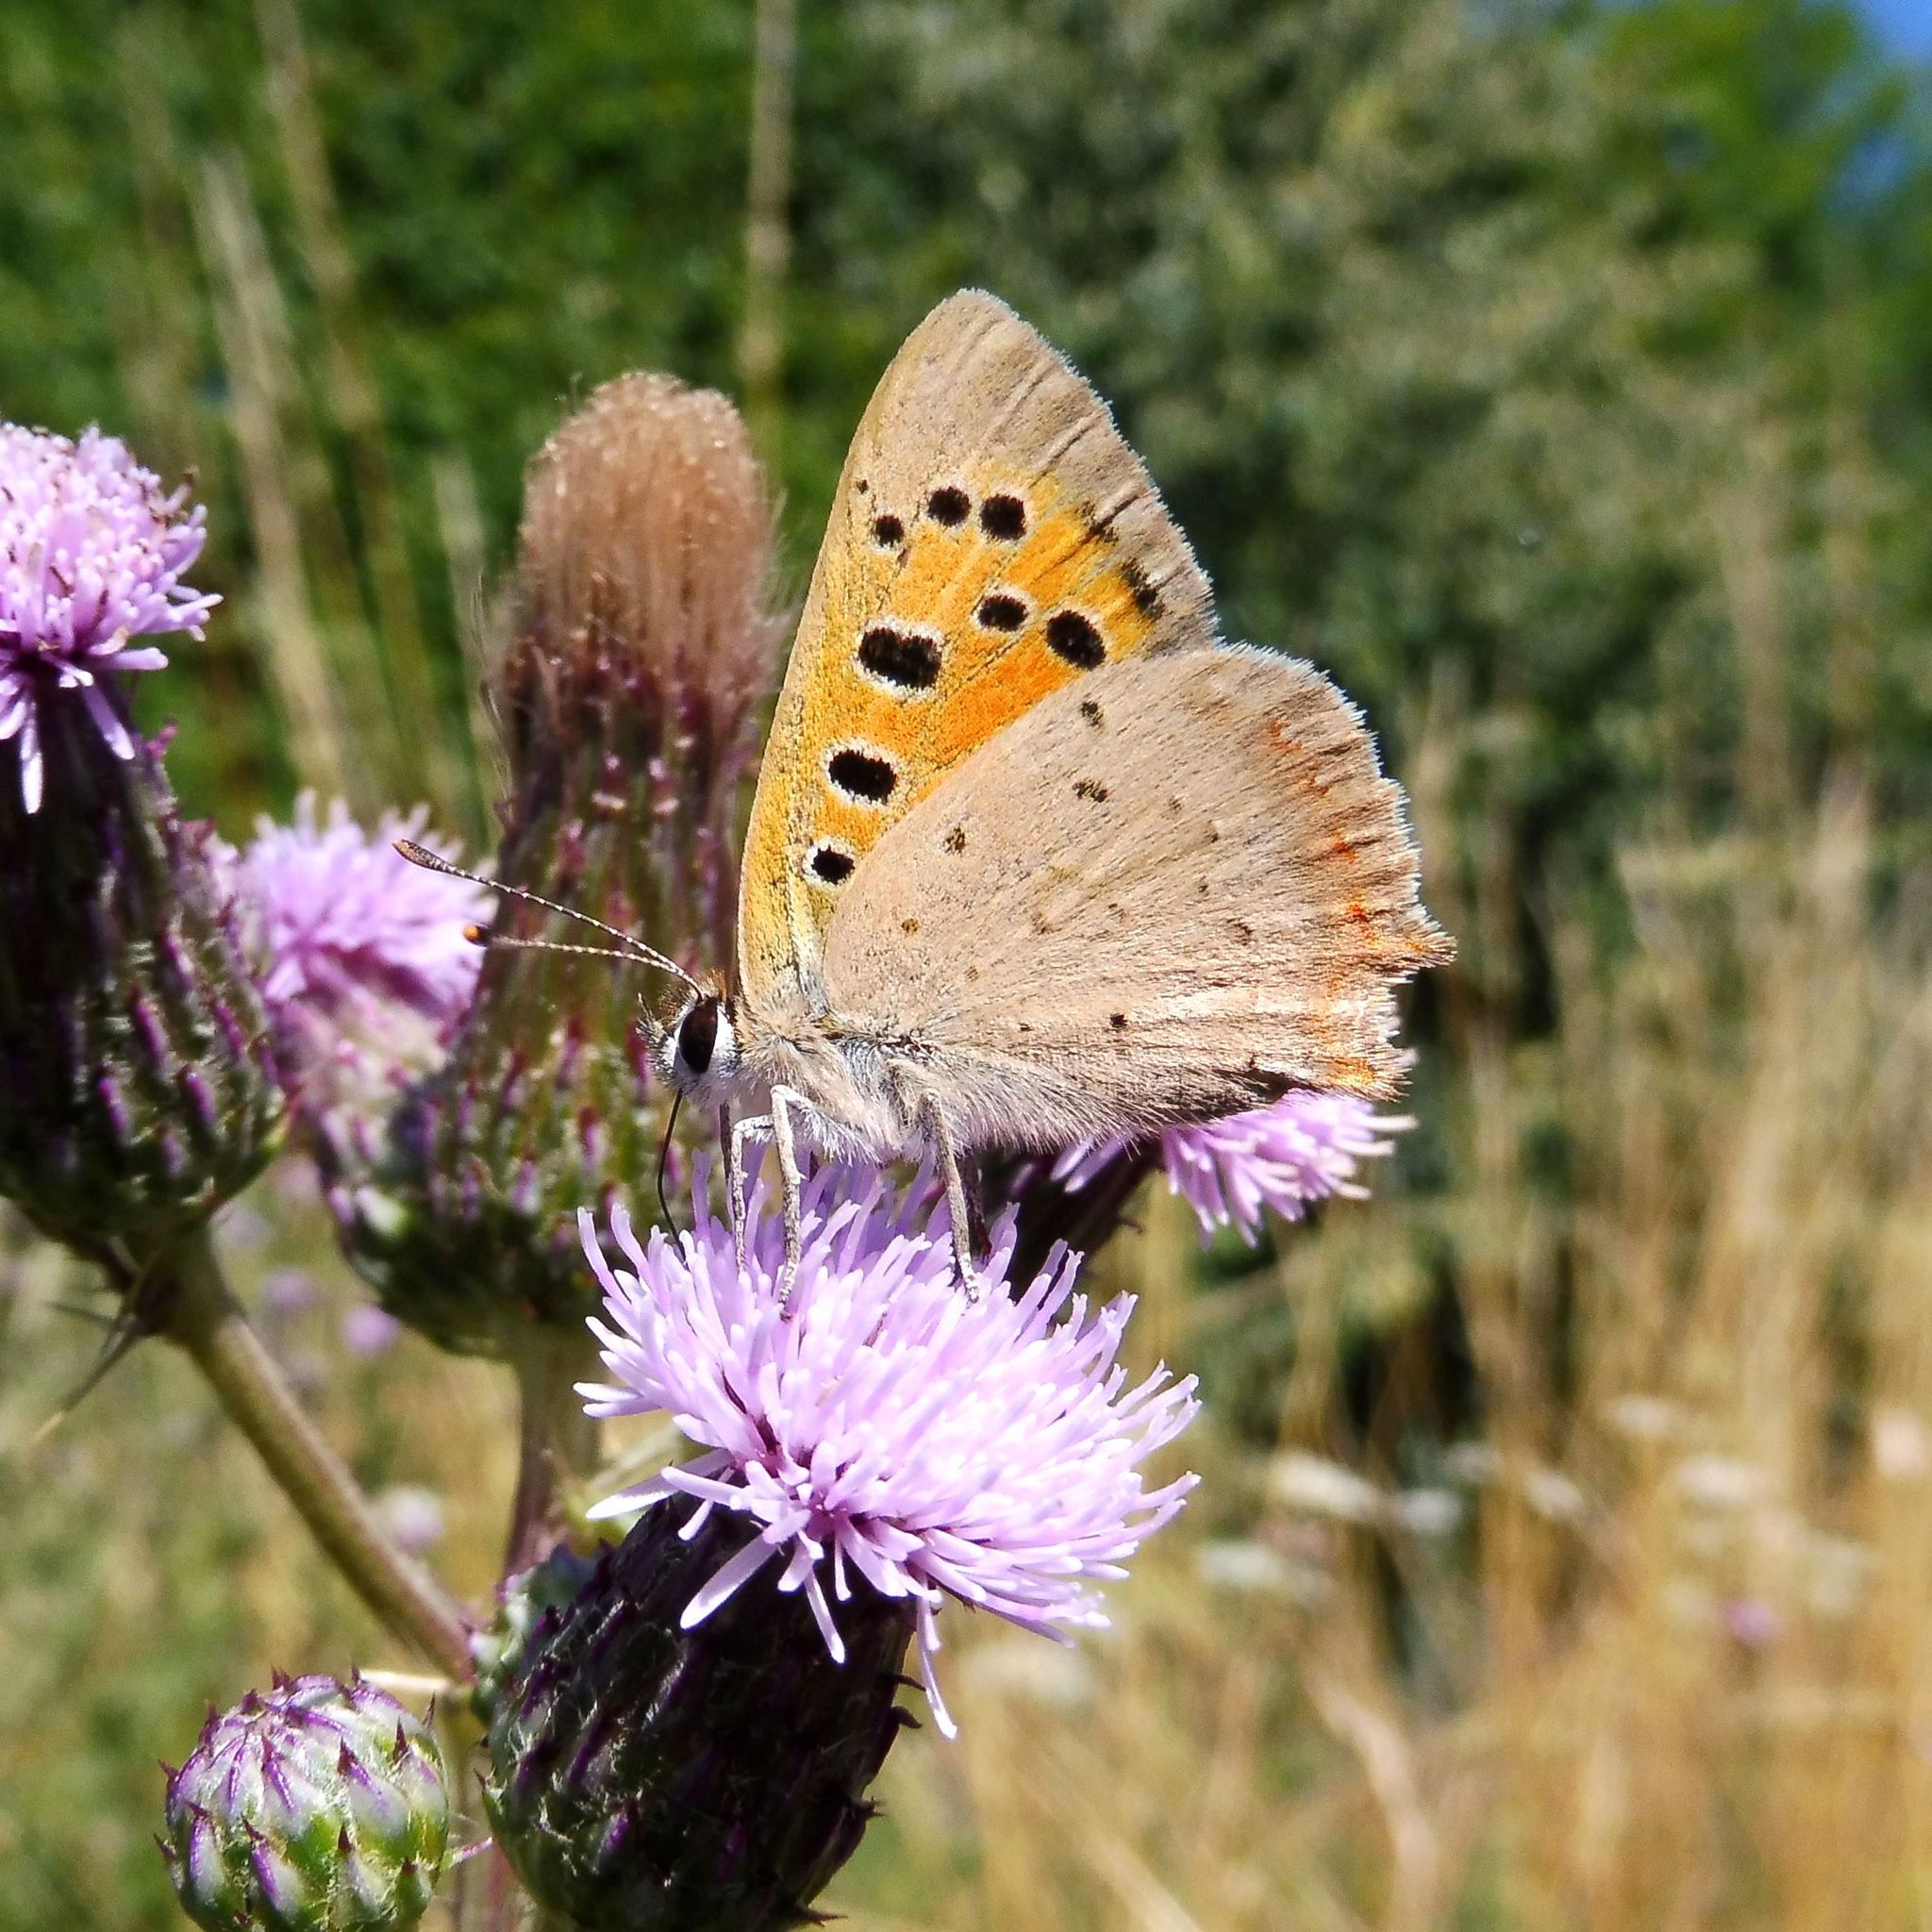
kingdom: Animalia
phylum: Arthropoda
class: Insecta
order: Lepidoptera
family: Lycaenidae
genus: Lycaena
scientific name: Lycaena phlaeas
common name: Small copper
